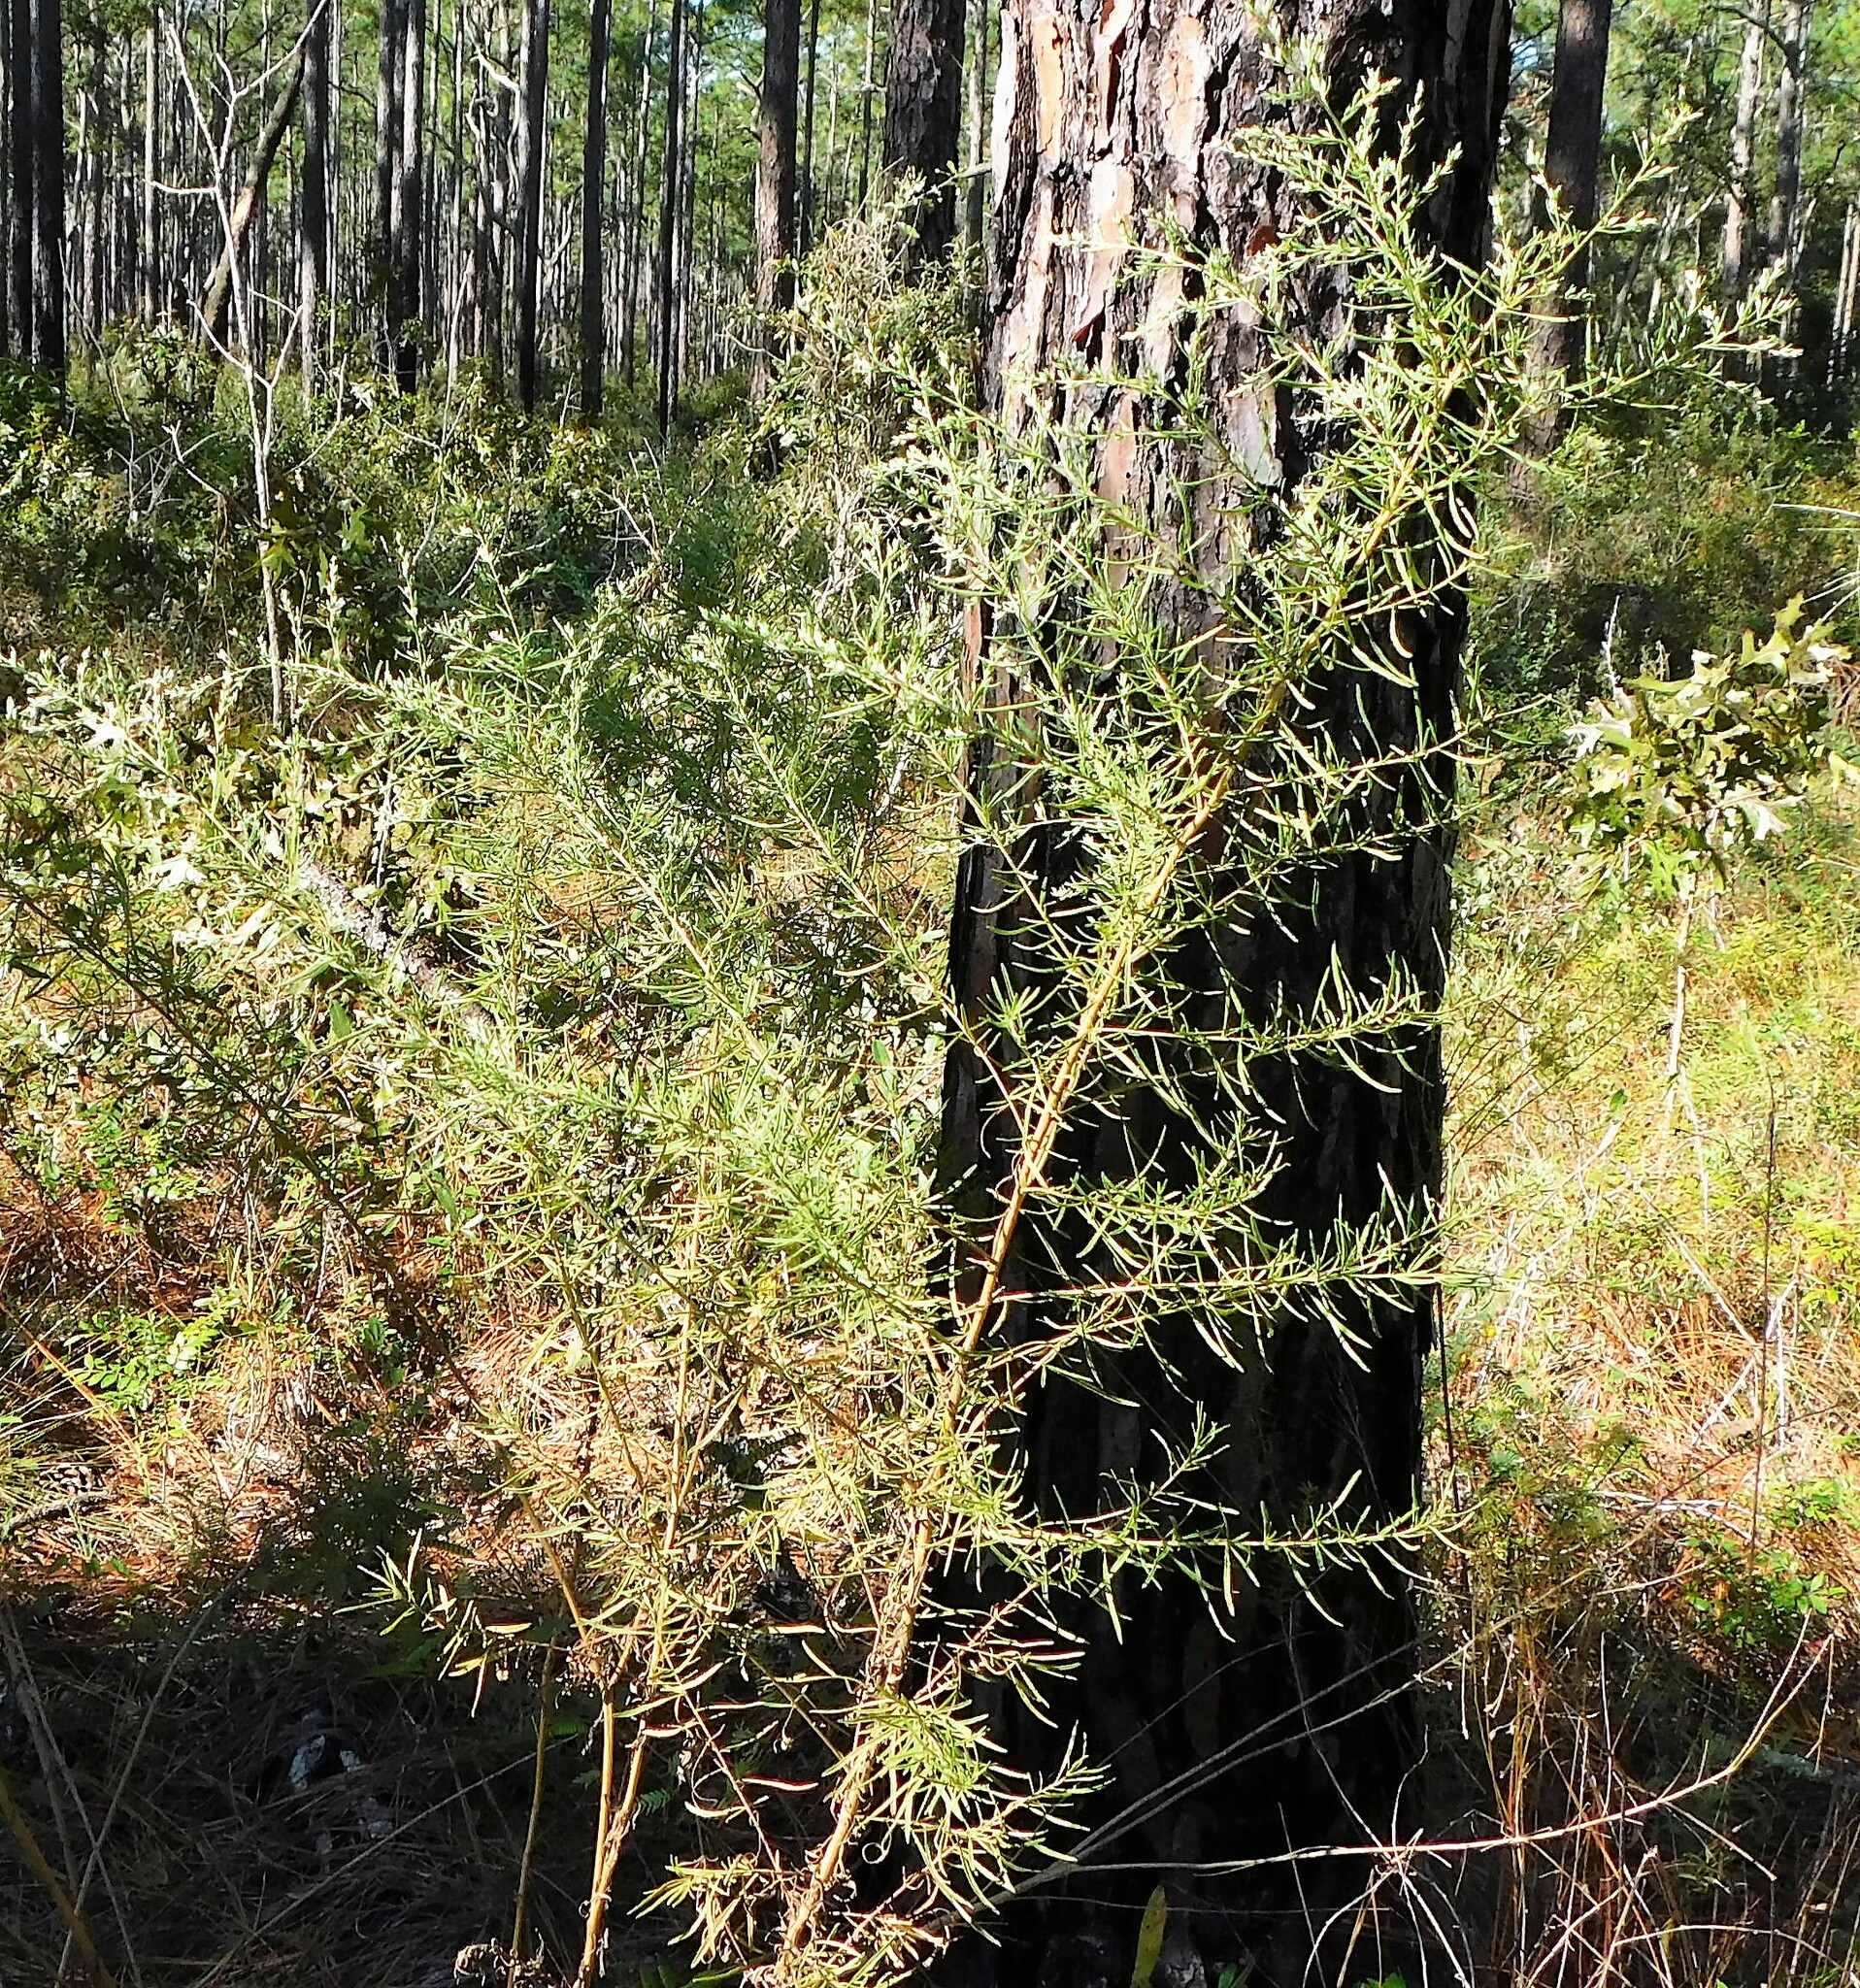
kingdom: Plantae
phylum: Tracheophyta
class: Magnoliopsida
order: Asterales
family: Asteraceae
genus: Eupatorium
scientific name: Eupatorium compositifolium
